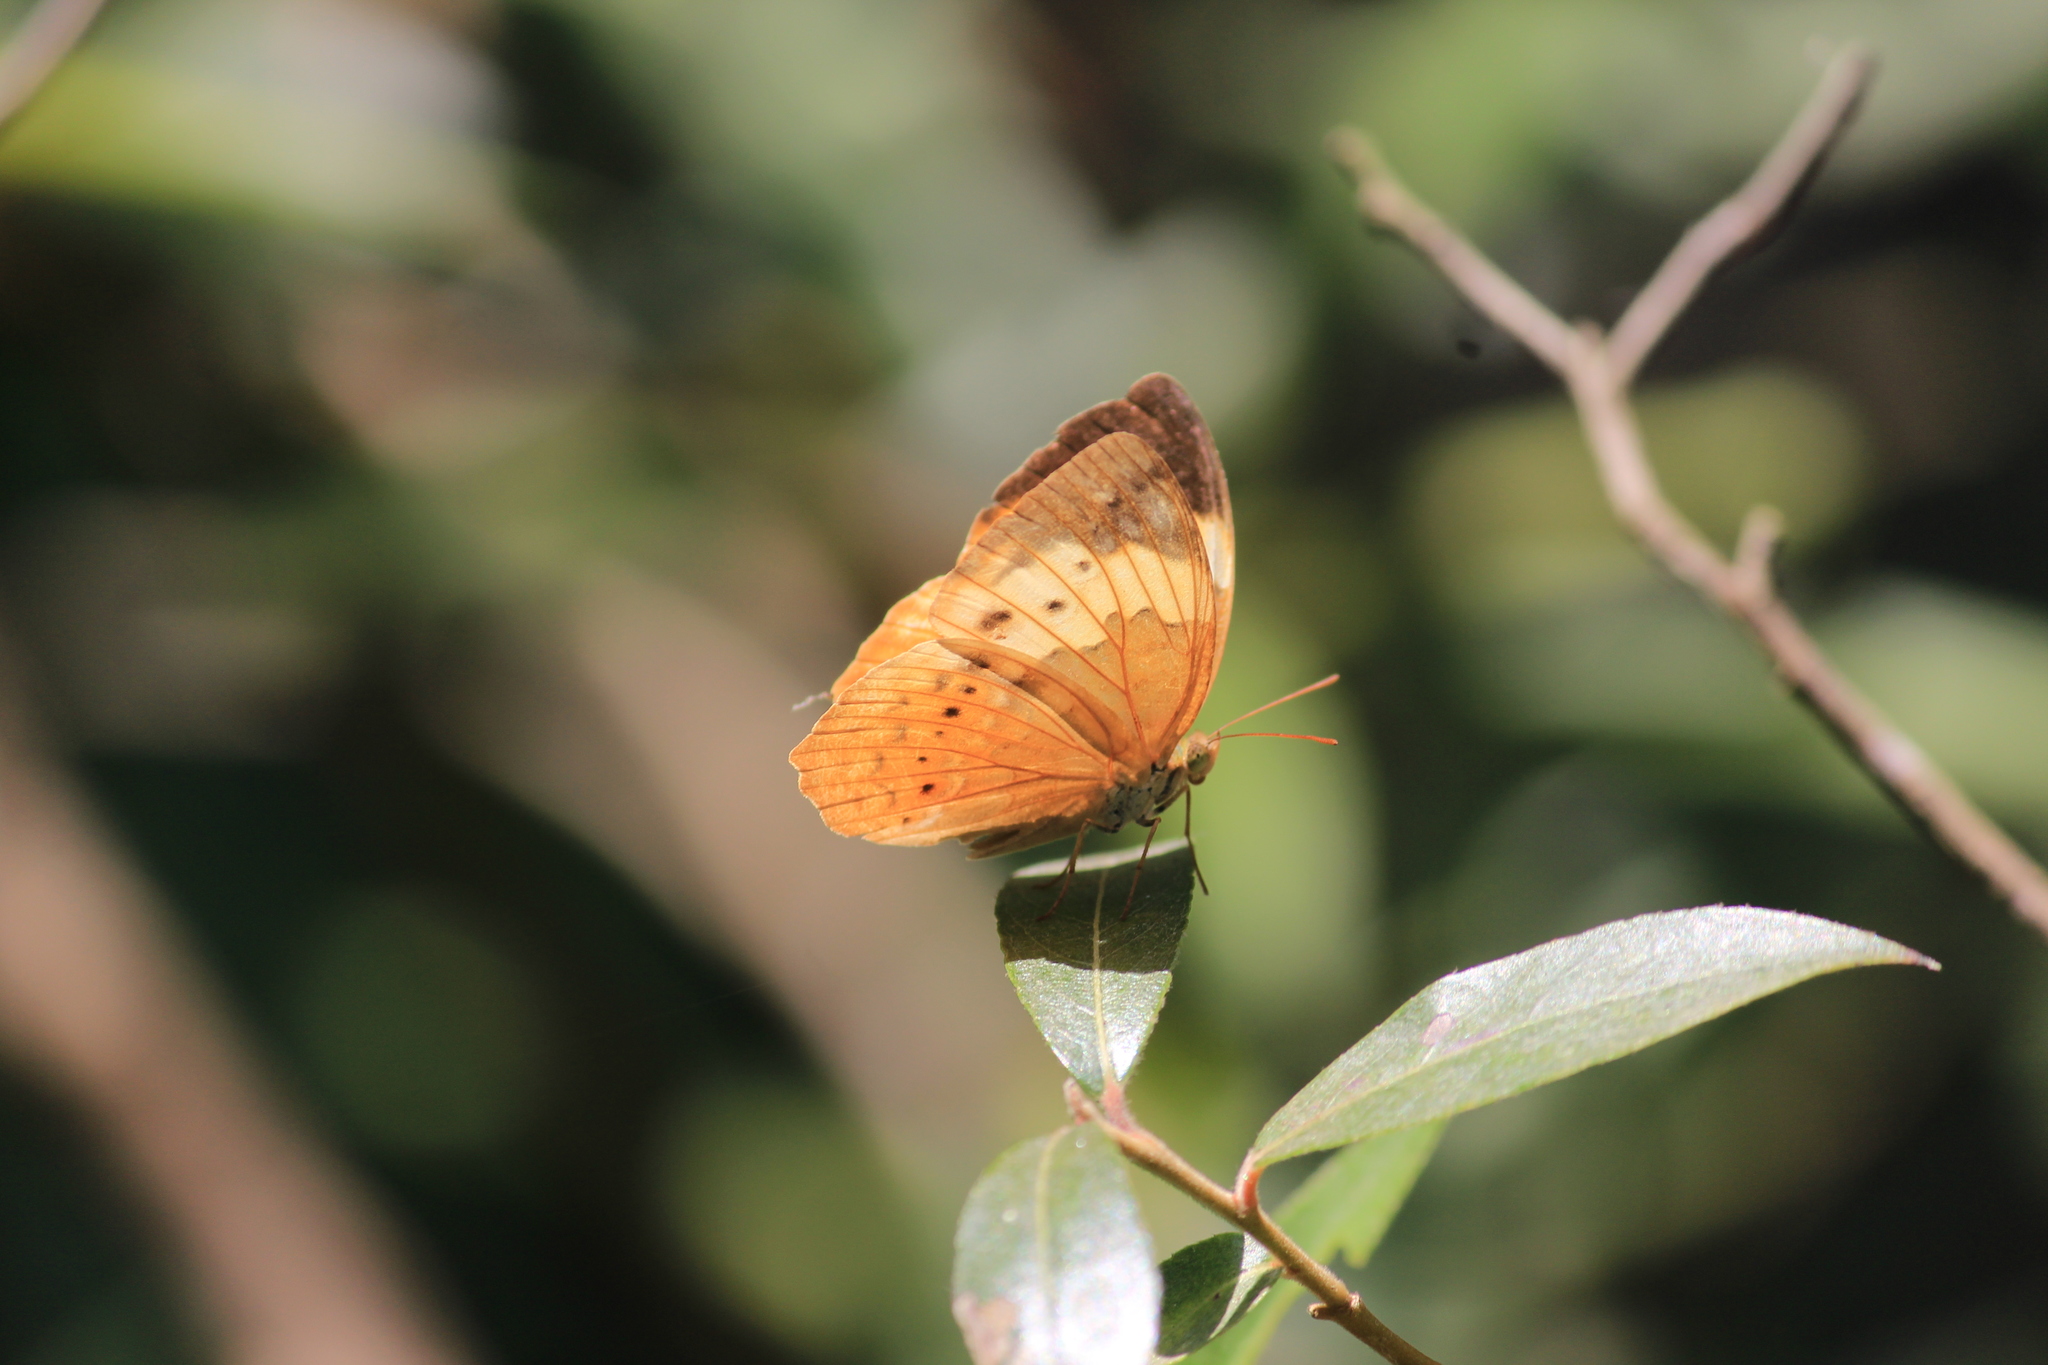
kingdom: Animalia
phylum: Arthropoda
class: Insecta
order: Lepidoptera
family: Nymphalidae
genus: Cupha
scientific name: Cupha erymanthis
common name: Rustic
